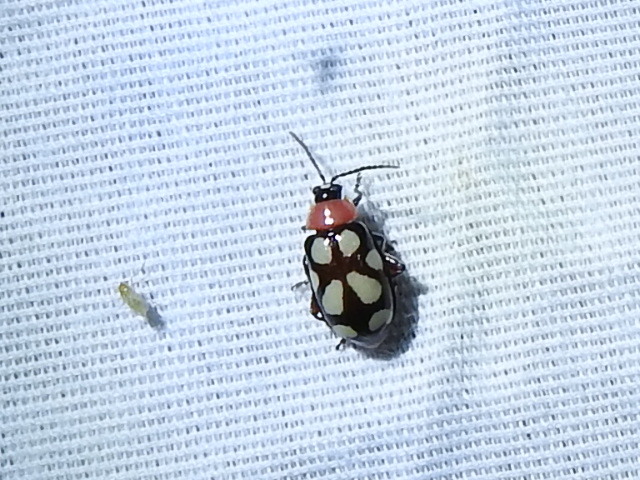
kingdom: Animalia
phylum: Arthropoda
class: Insecta
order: Coleoptera
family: Chrysomelidae
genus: Omophoita
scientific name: Omophoita cyanipennis
